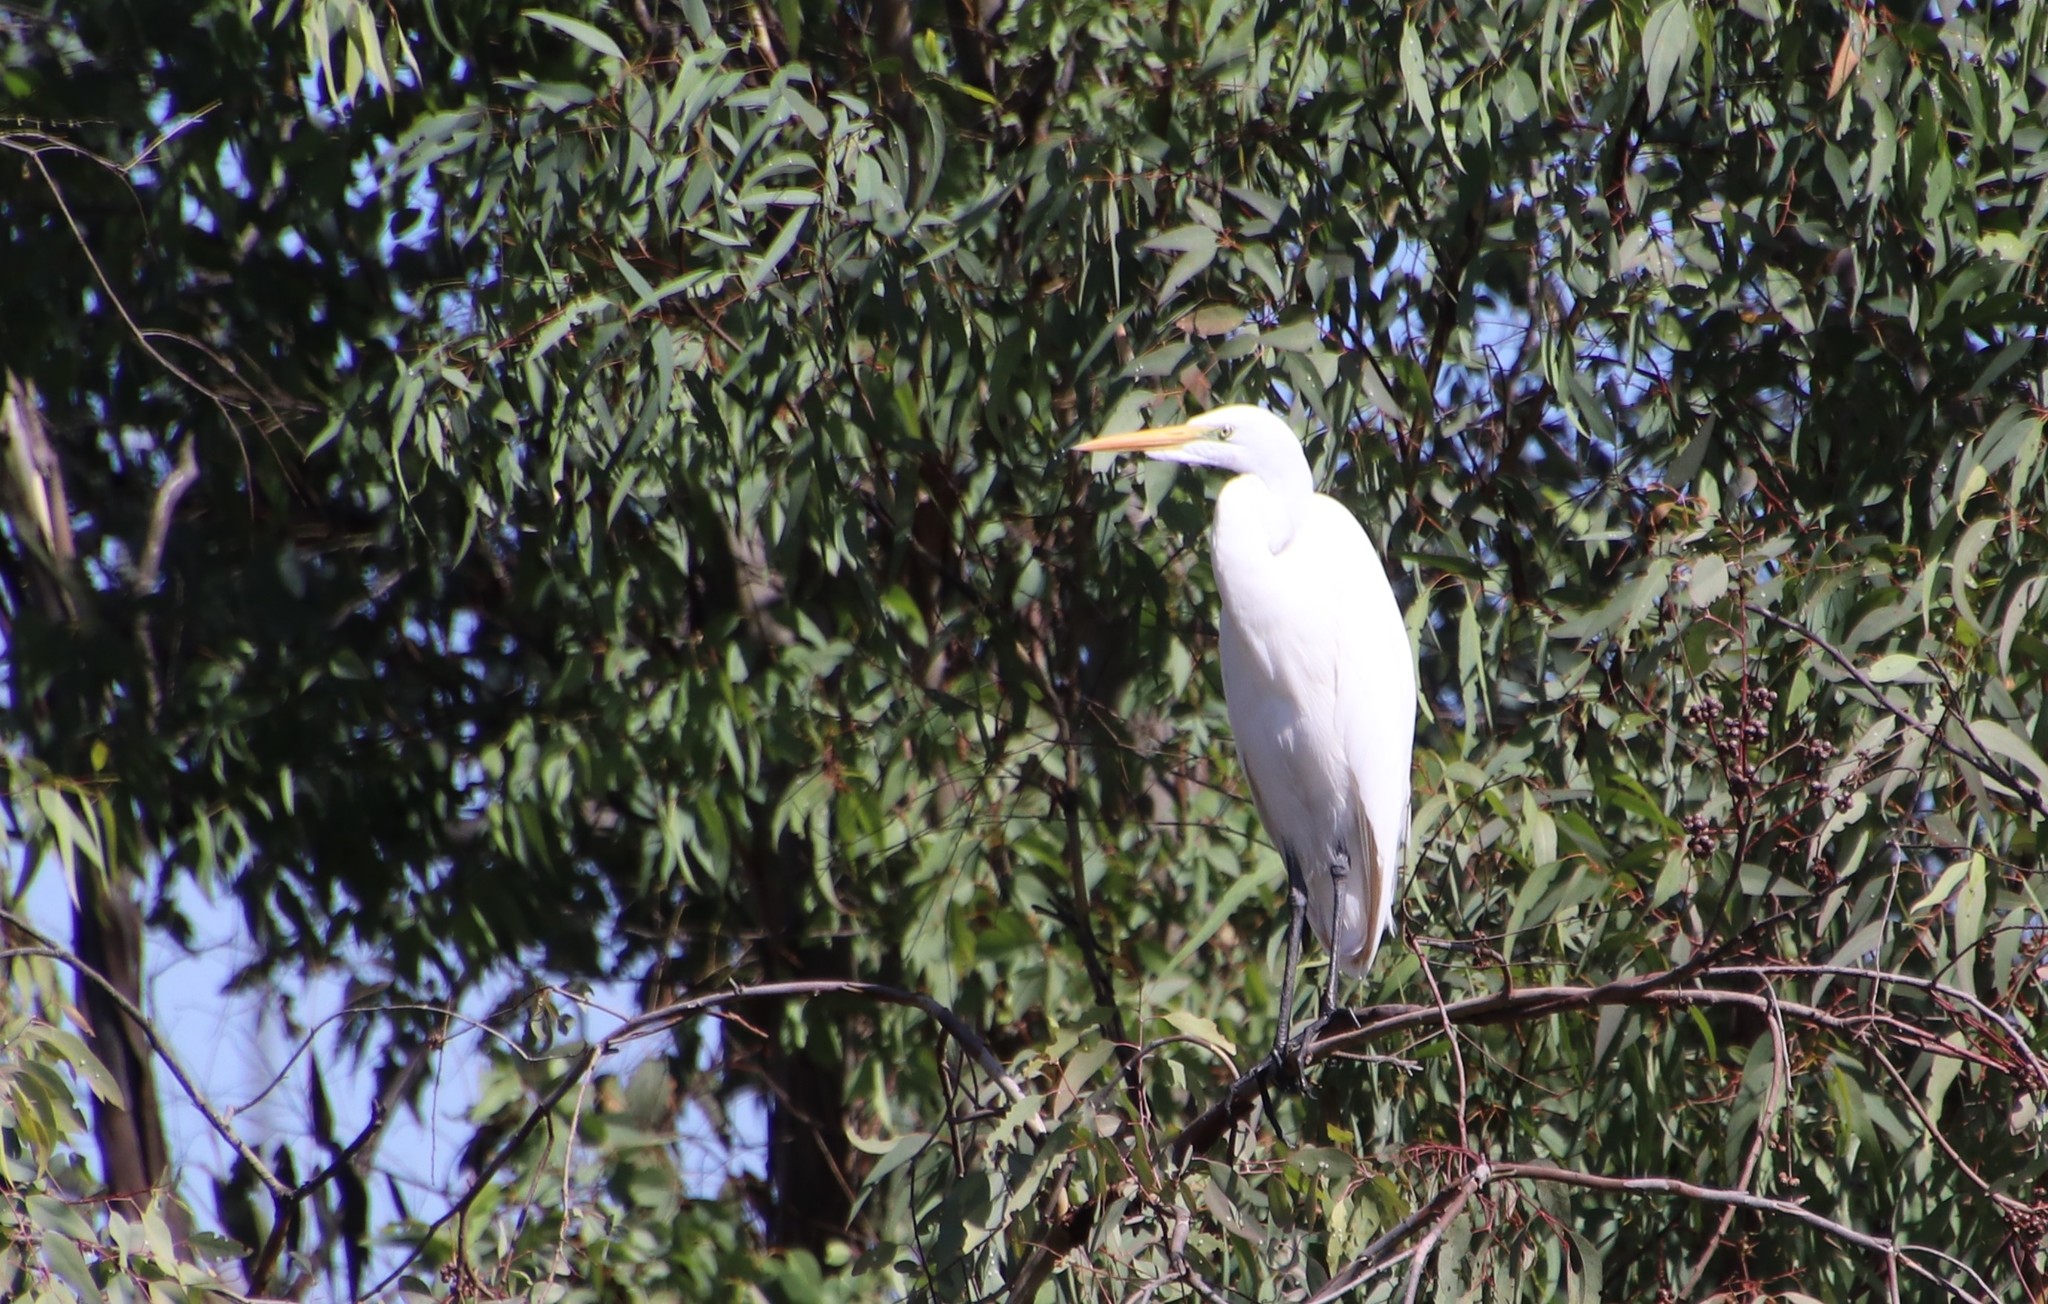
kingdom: Animalia
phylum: Chordata
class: Aves
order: Pelecaniformes
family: Ardeidae
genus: Ardea
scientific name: Ardea alba
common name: Great egret
